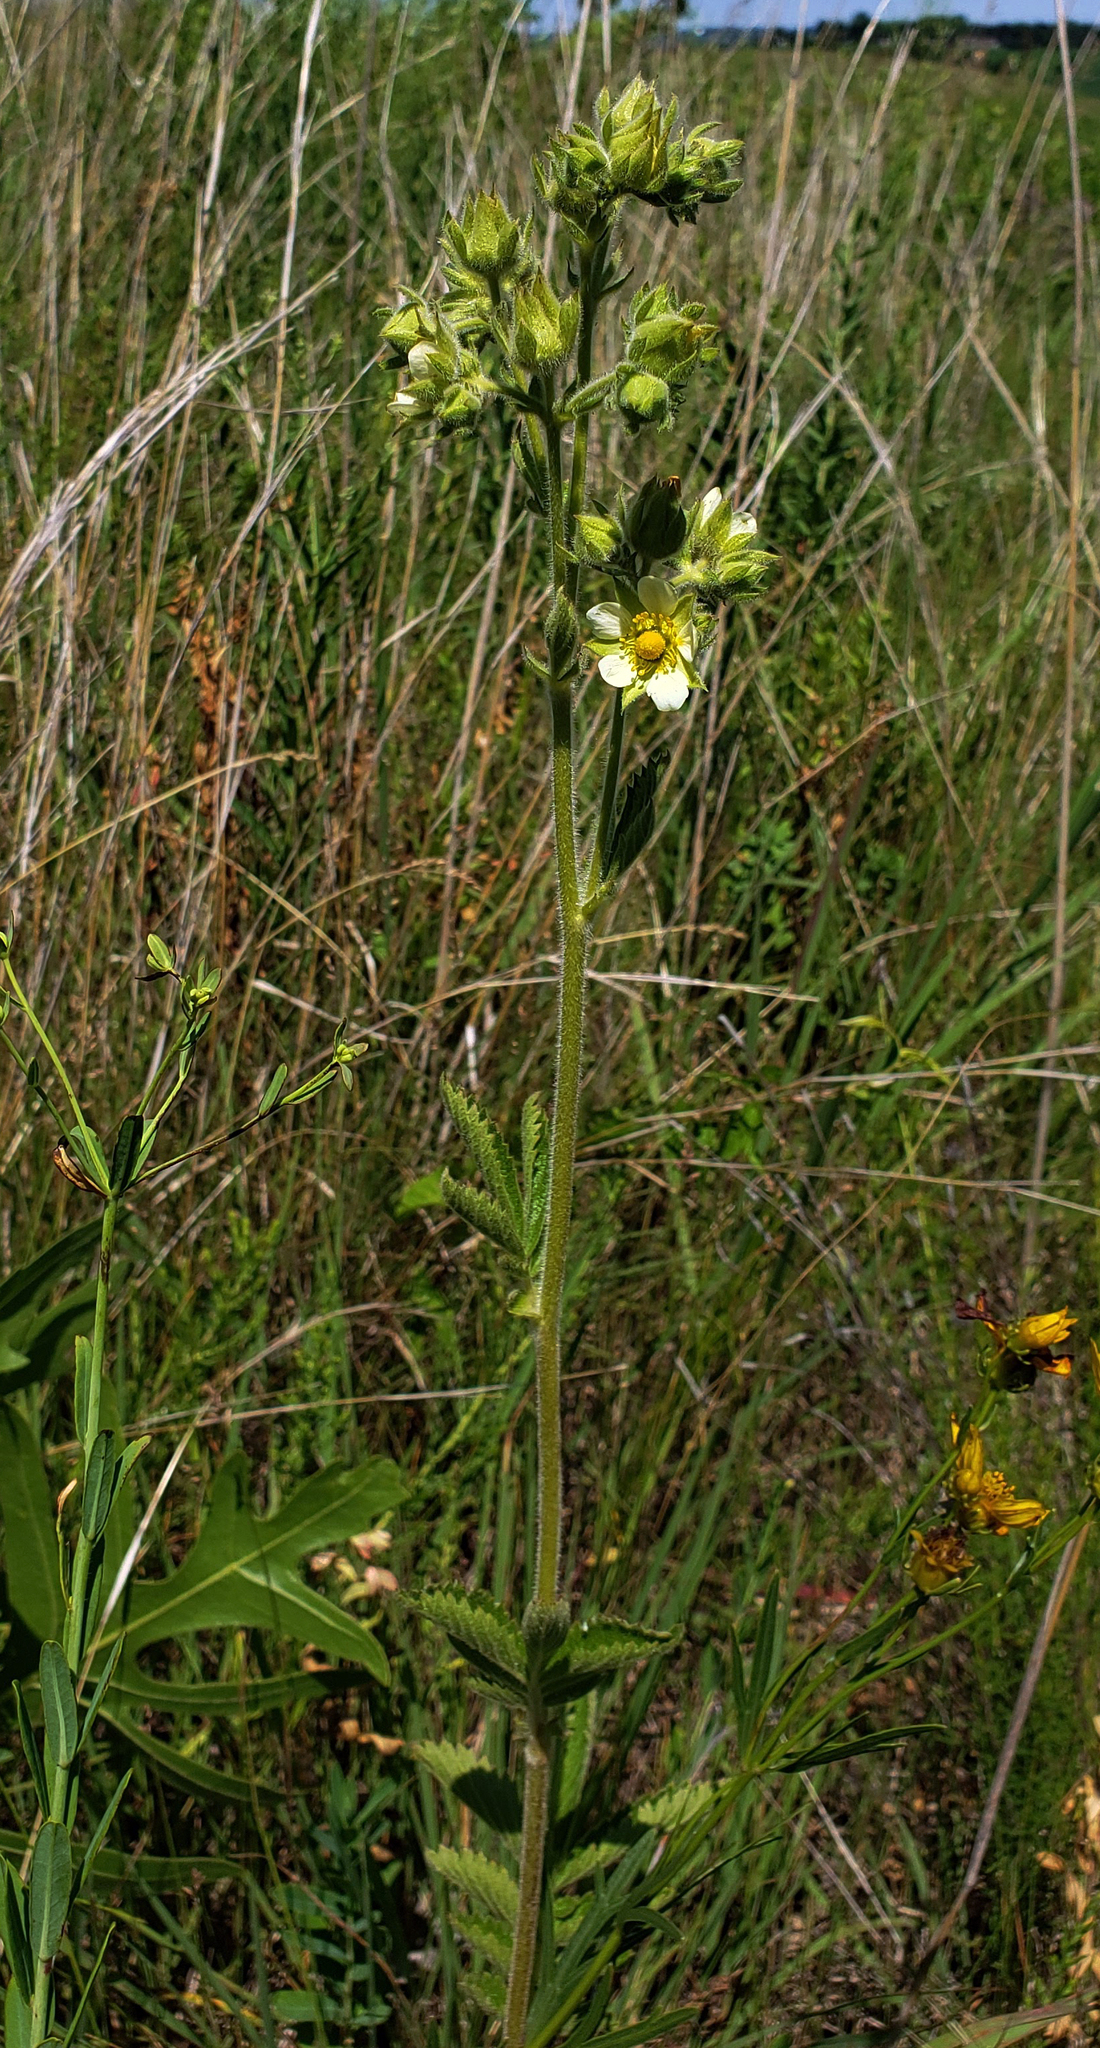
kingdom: Plantae
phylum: Tracheophyta
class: Magnoliopsida
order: Rosales
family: Rosaceae
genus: Drymocallis
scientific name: Drymocallis arguta
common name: Tall cinquefoil
